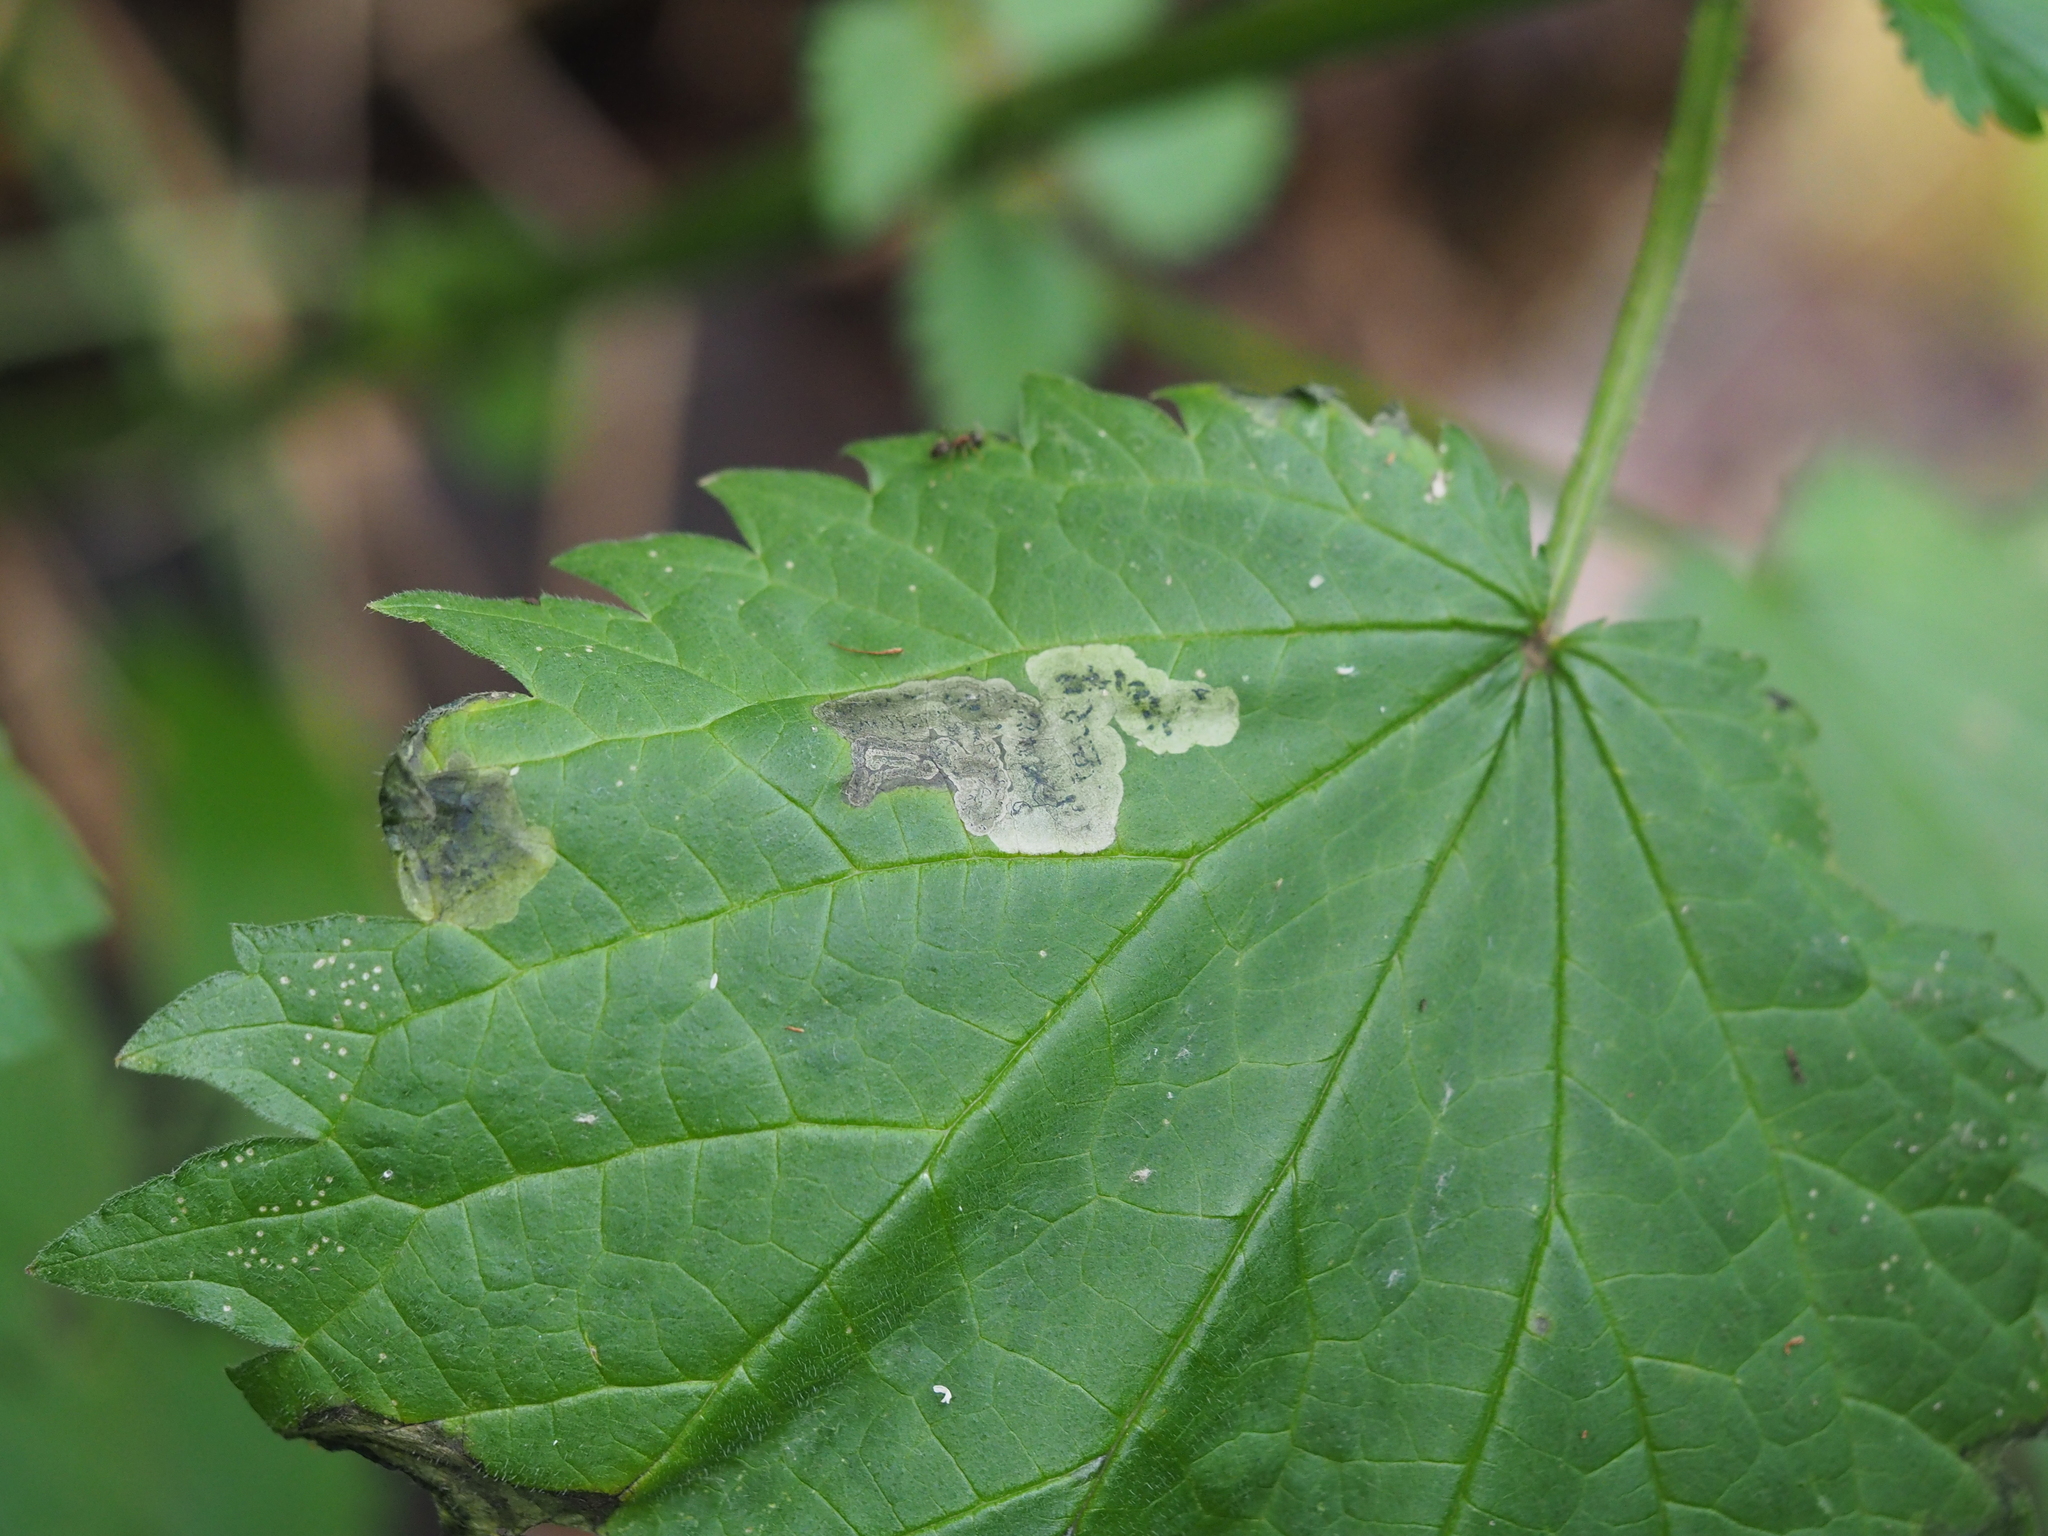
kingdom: Animalia
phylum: Arthropoda
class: Insecta
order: Diptera
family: Agromyzidae
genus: Agromyza
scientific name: Agromyza anthracina
